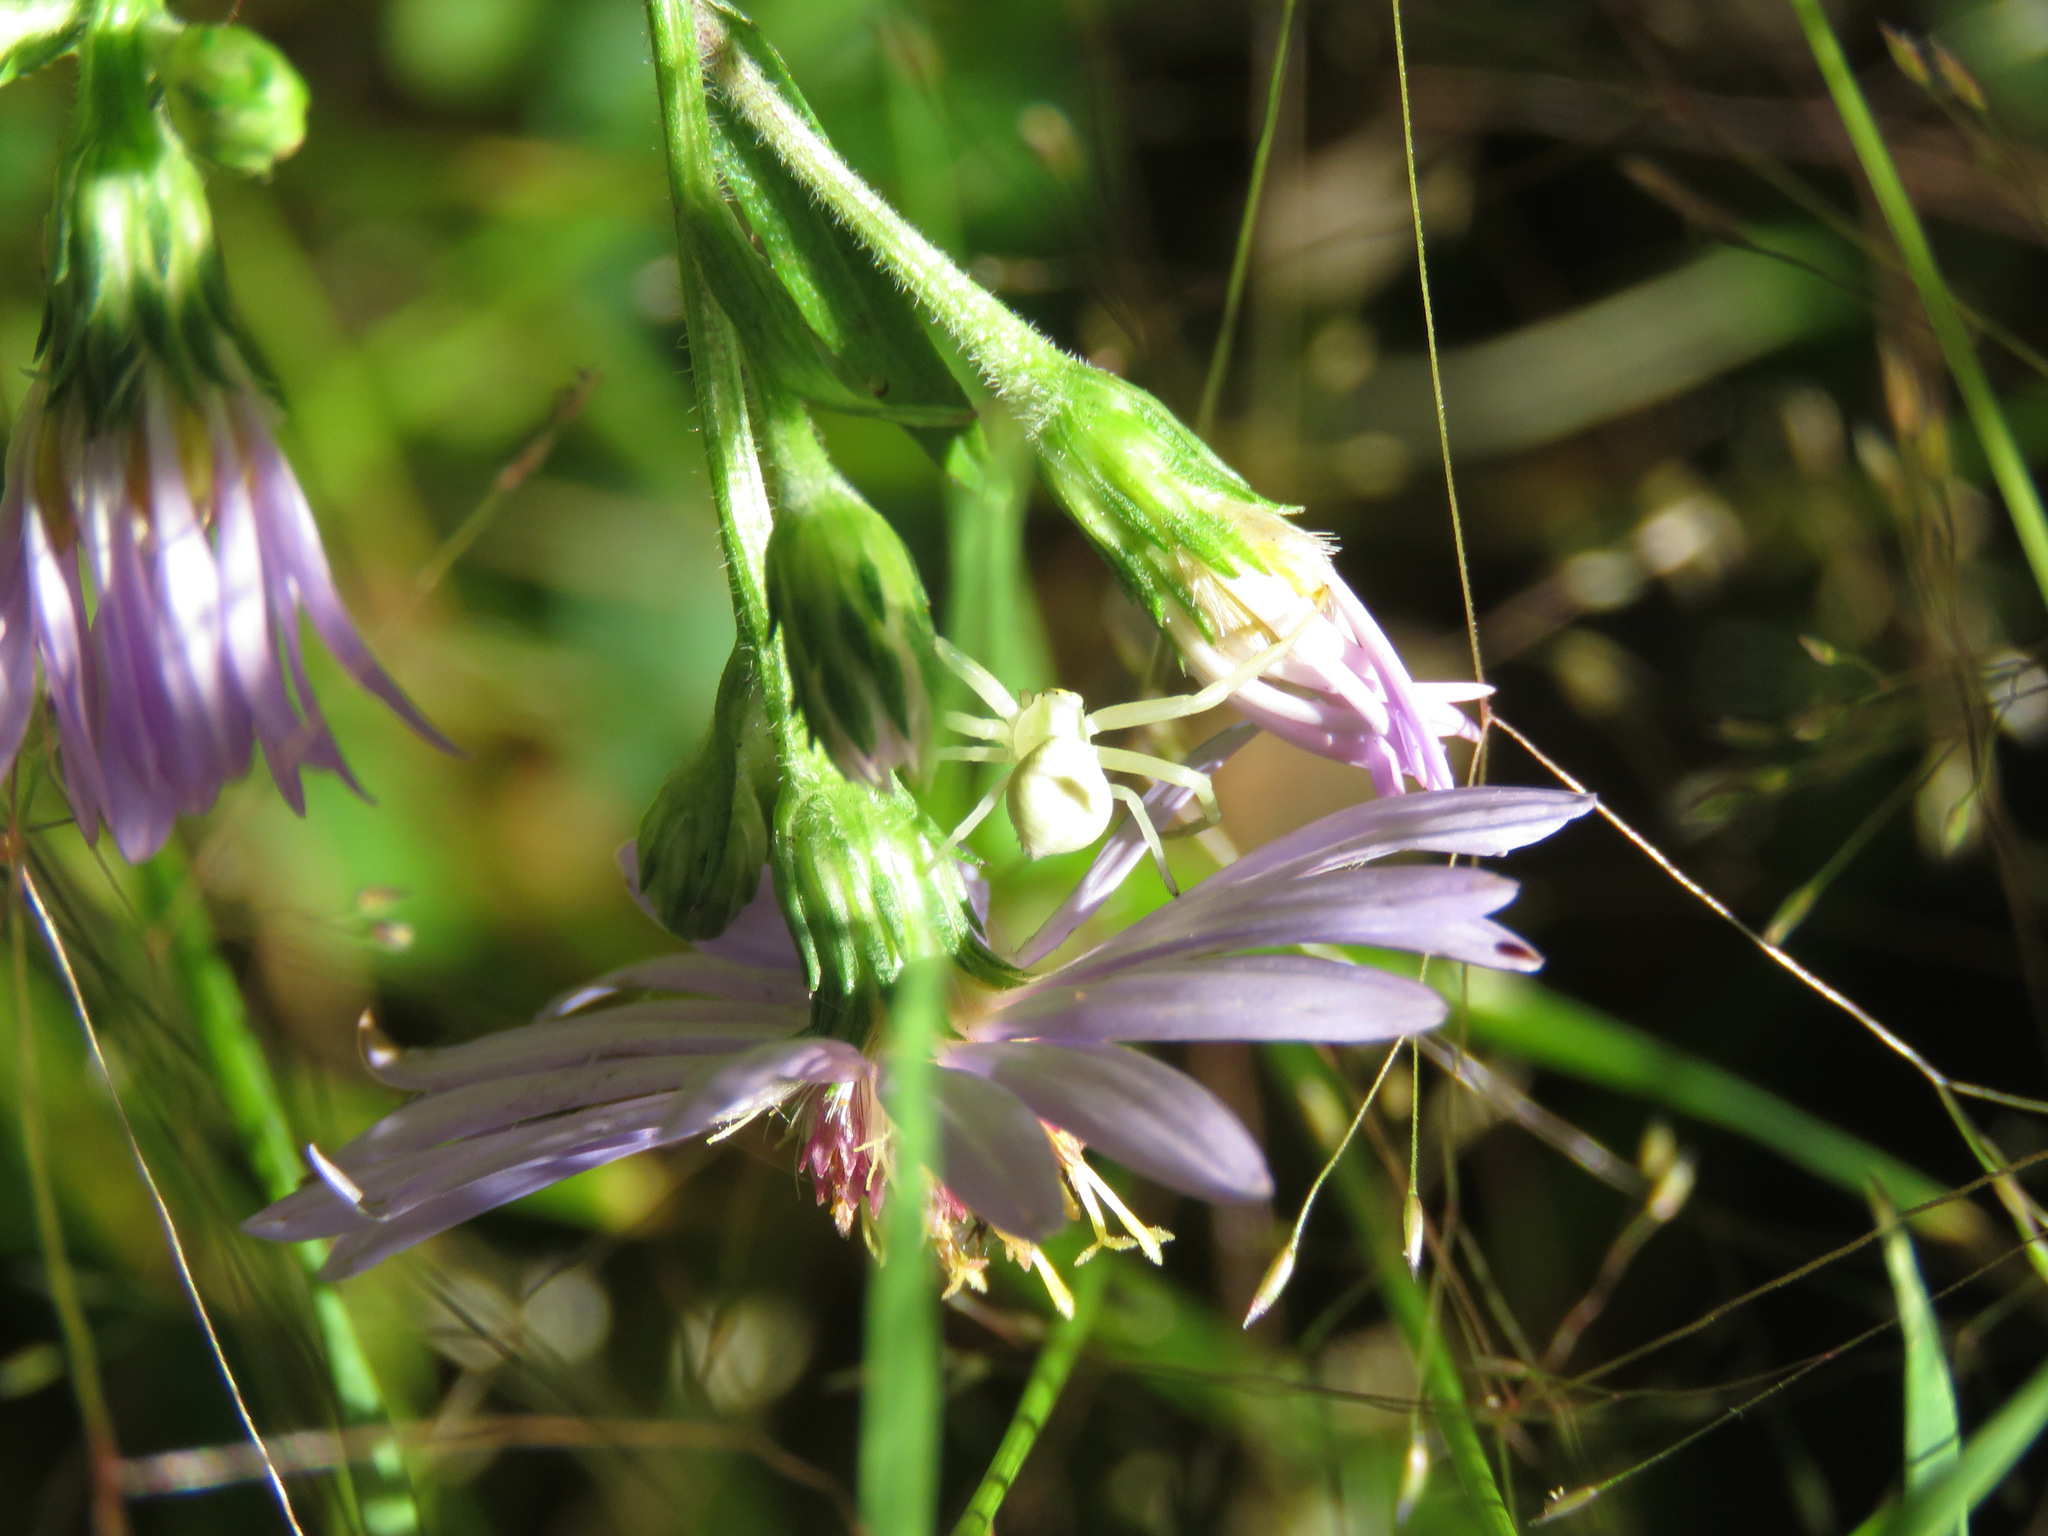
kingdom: Animalia
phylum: Arthropoda
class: Arachnida
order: Araneae
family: Thomisidae
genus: Misumena
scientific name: Misumena vatia
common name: Goldenrod crab spider
